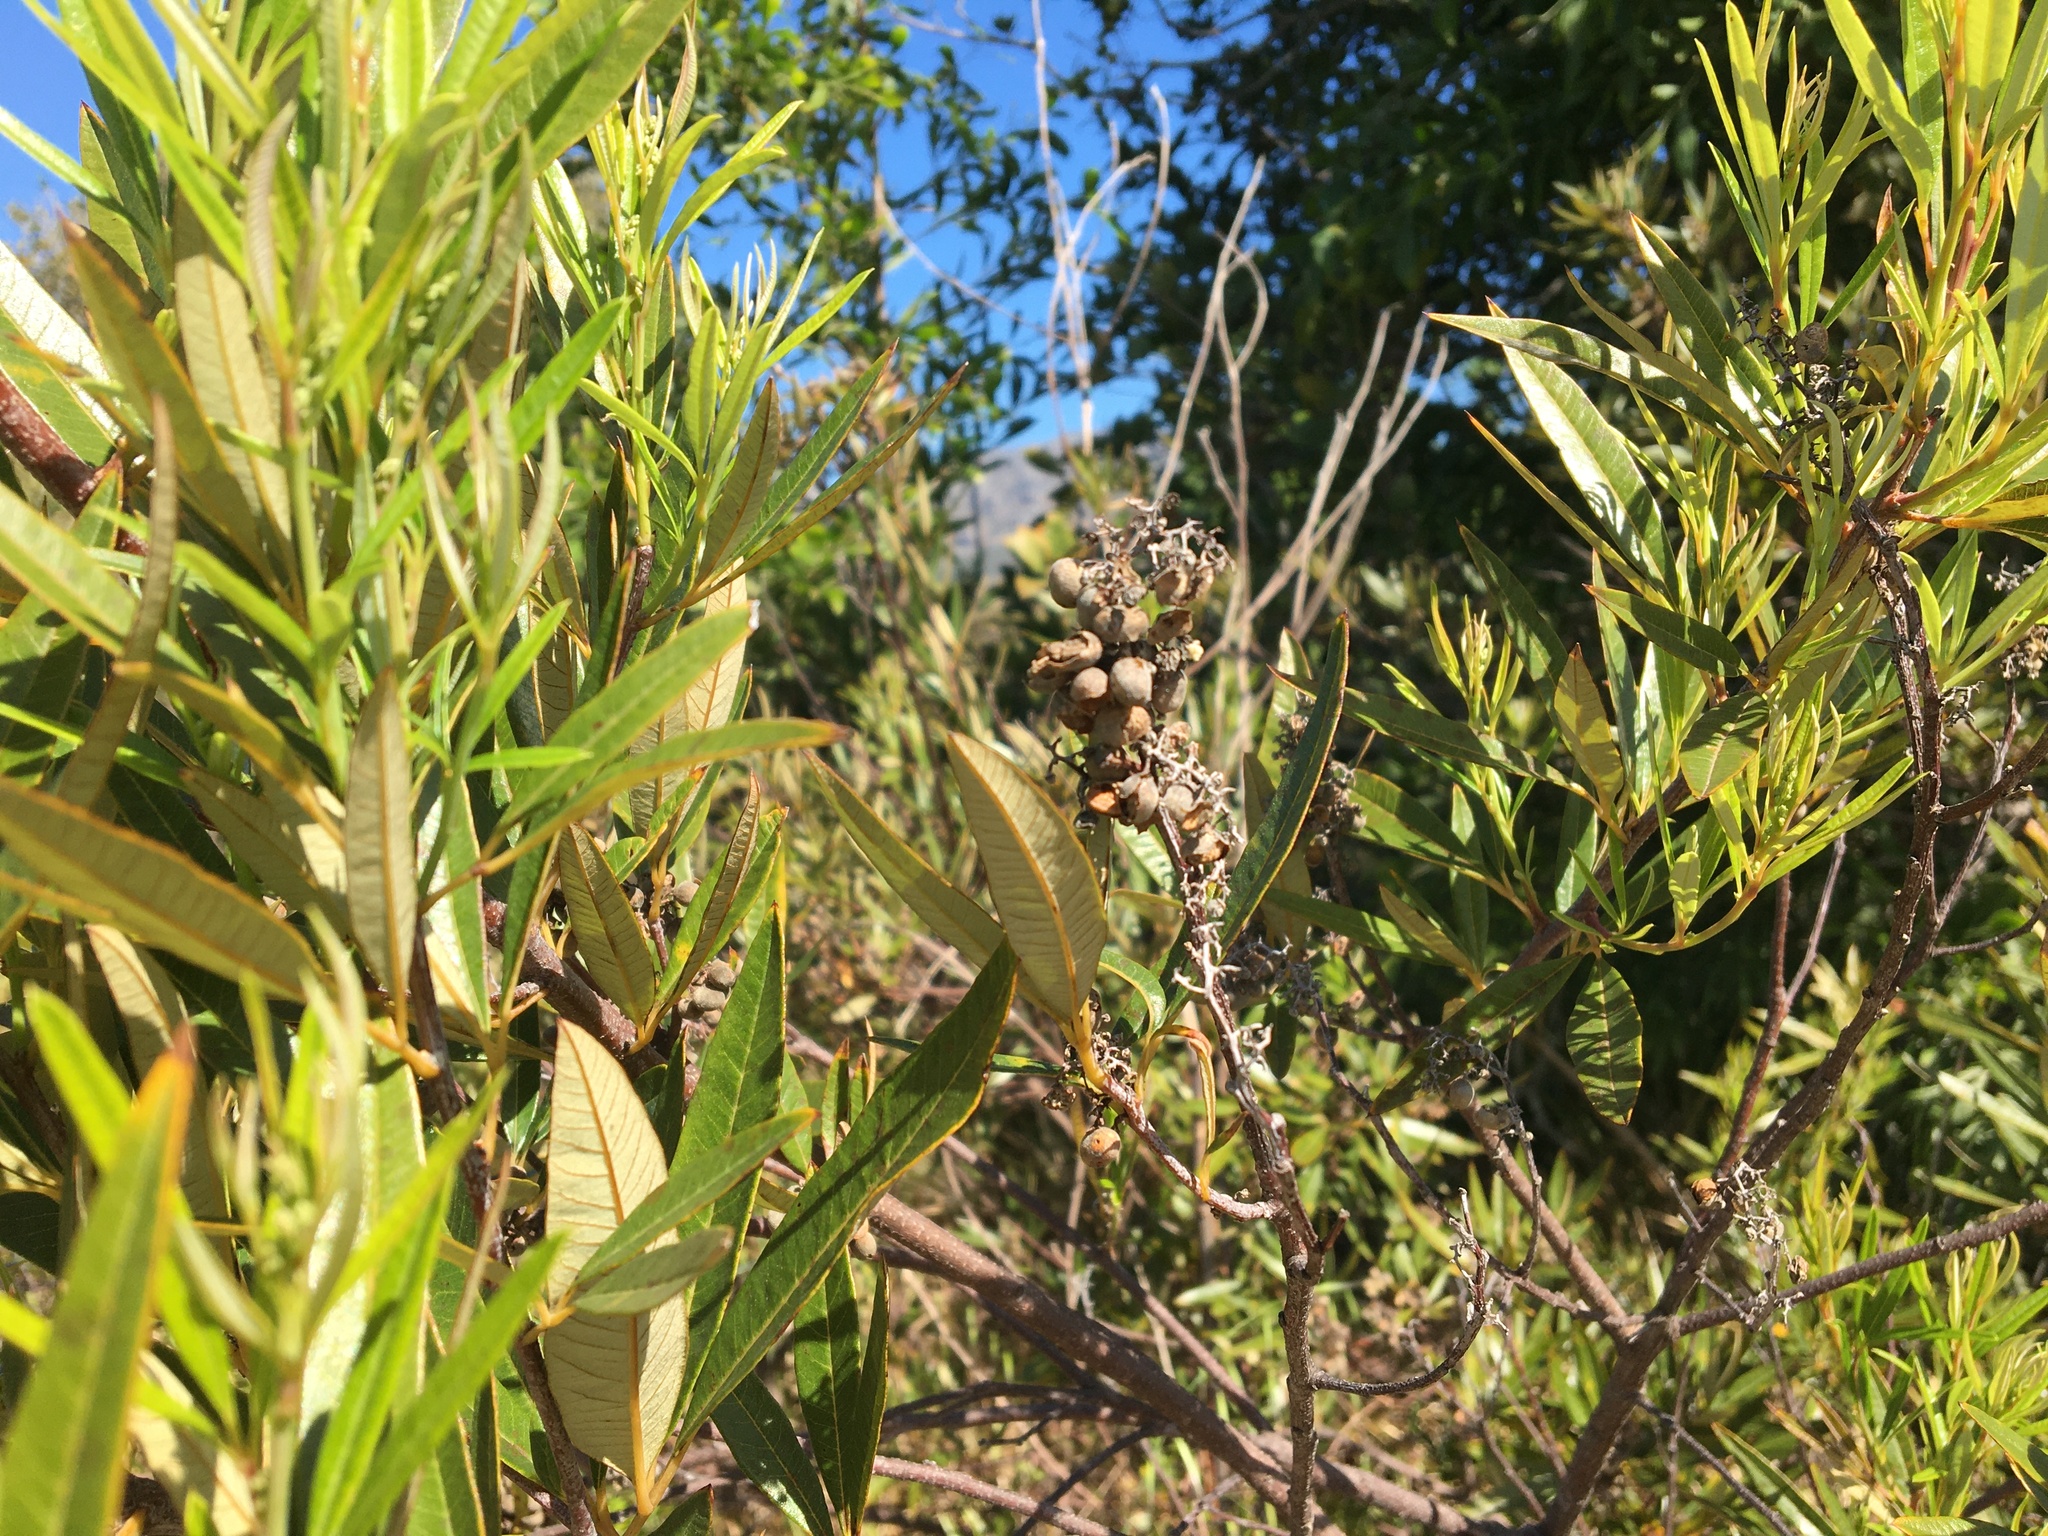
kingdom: Plantae
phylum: Tracheophyta
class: Magnoliopsida
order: Sapindales
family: Anacardiaceae
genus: Searsia
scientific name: Searsia angustifolia
